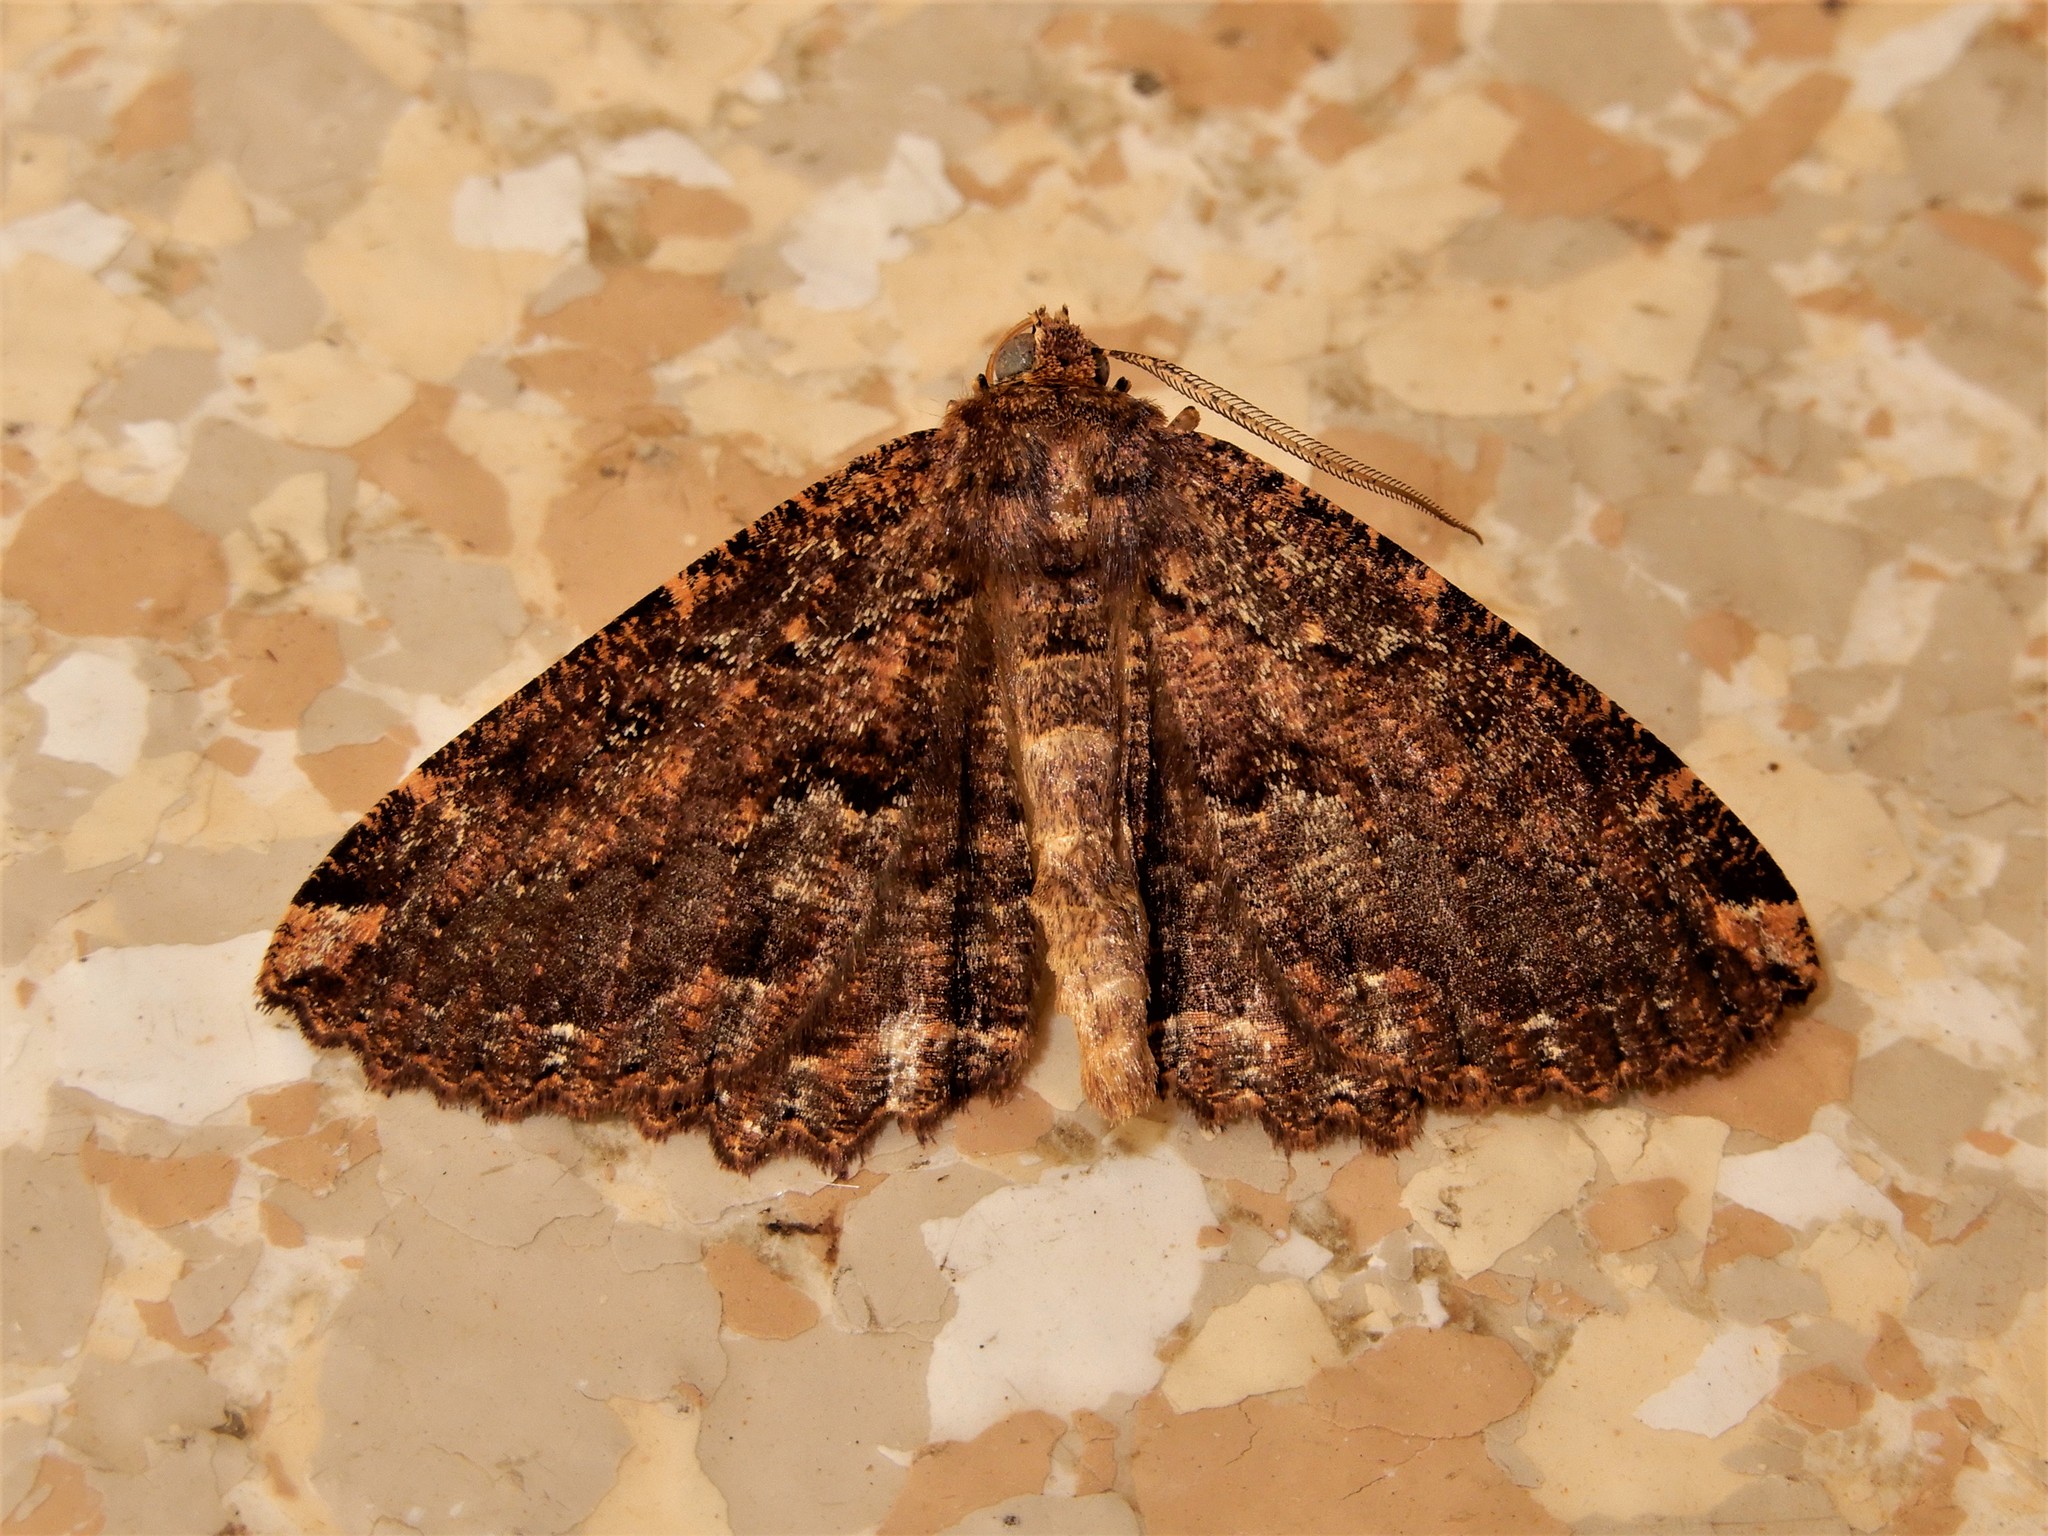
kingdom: Animalia
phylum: Arthropoda
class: Insecta
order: Lepidoptera
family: Geometridae
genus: Gellonia
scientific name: Gellonia dejectaria
